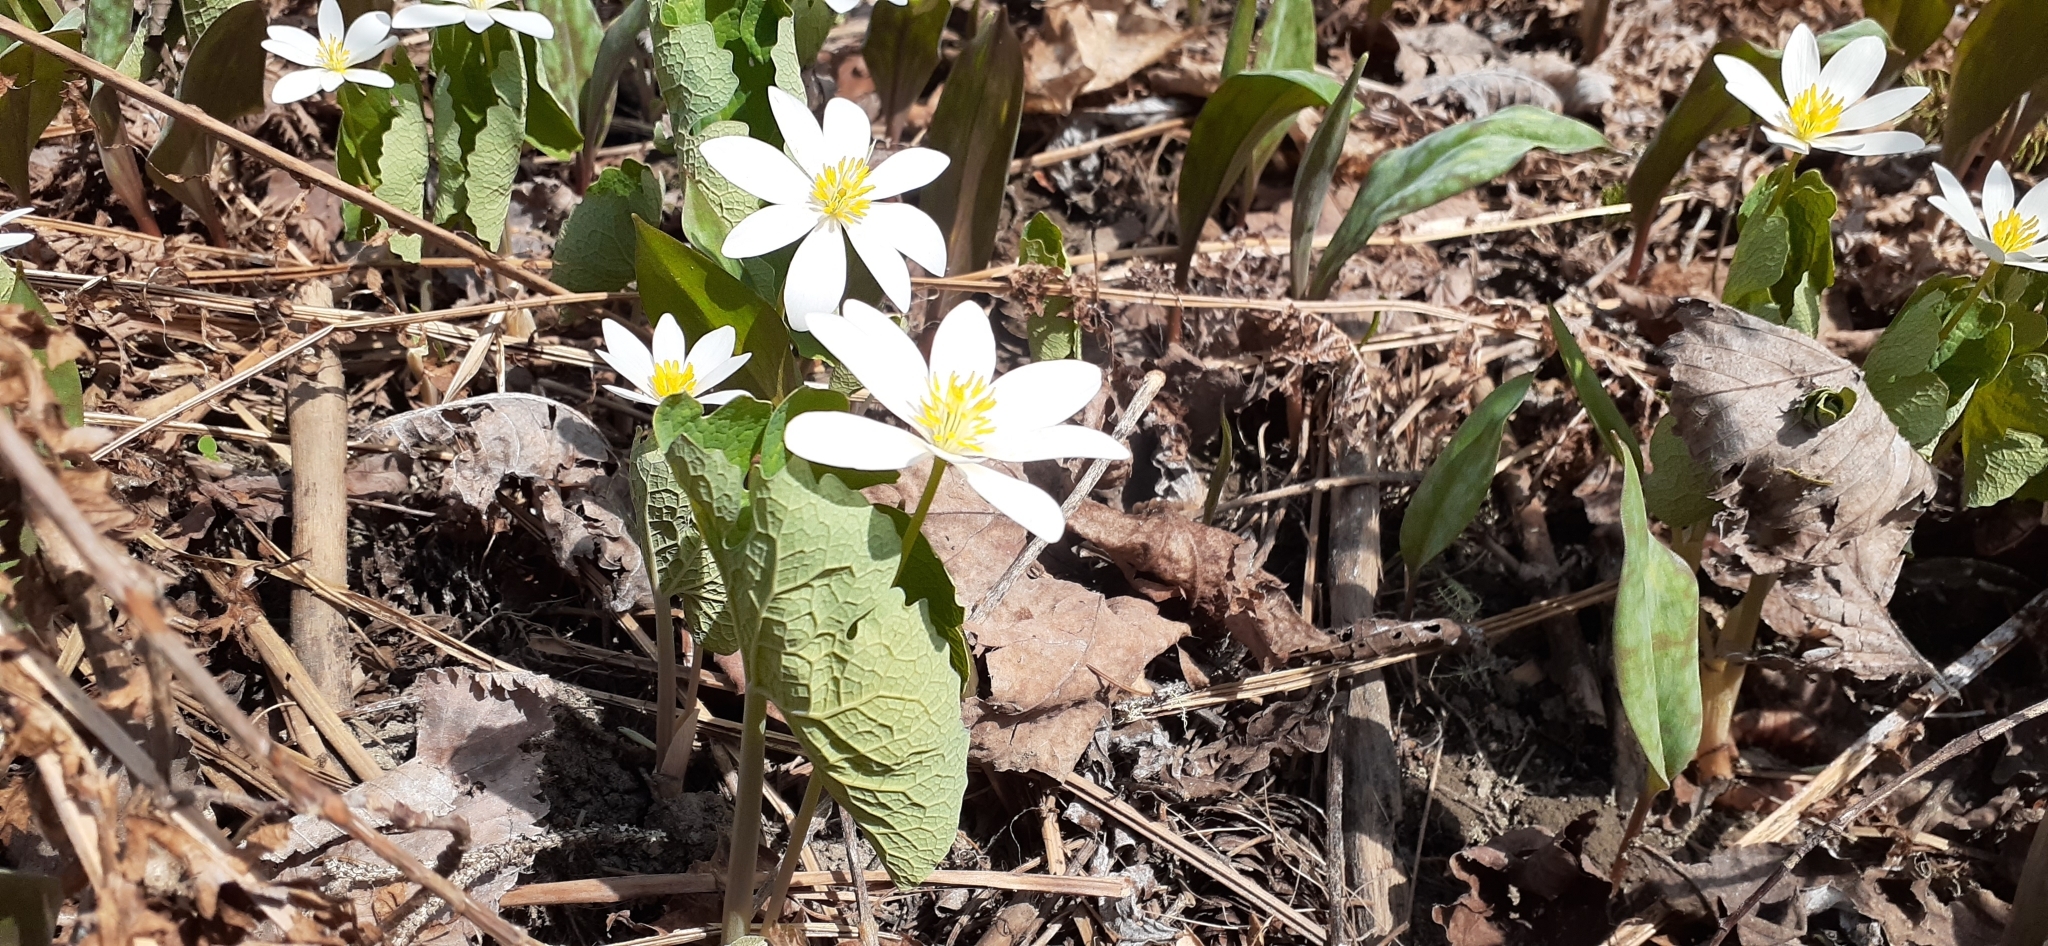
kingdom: Plantae
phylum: Tracheophyta
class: Magnoliopsida
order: Ranunculales
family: Papaveraceae
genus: Sanguinaria
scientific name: Sanguinaria canadensis
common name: Bloodroot
